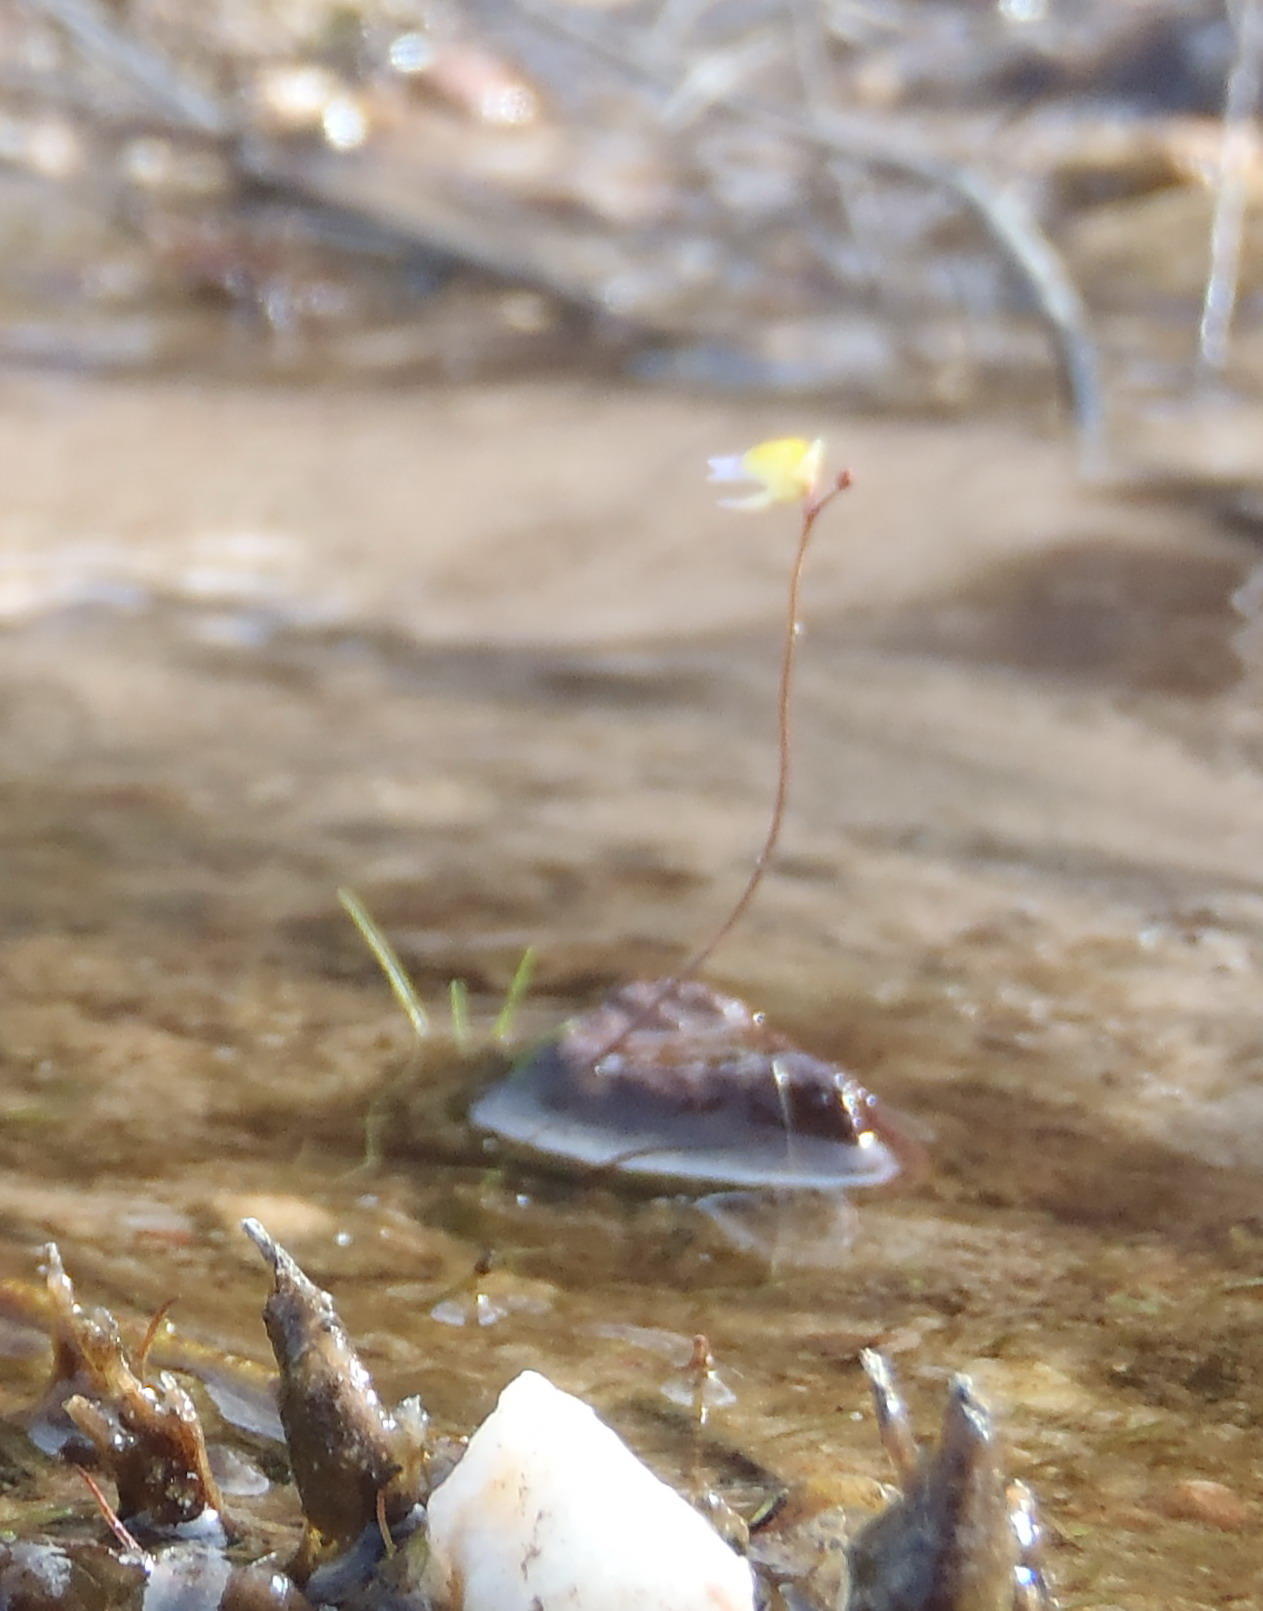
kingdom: Plantae
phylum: Tracheophyta
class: Magnoliopsida
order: Lamiales
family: Lentibulariaceae
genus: Utricularia
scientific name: Utricularia bisquamata
